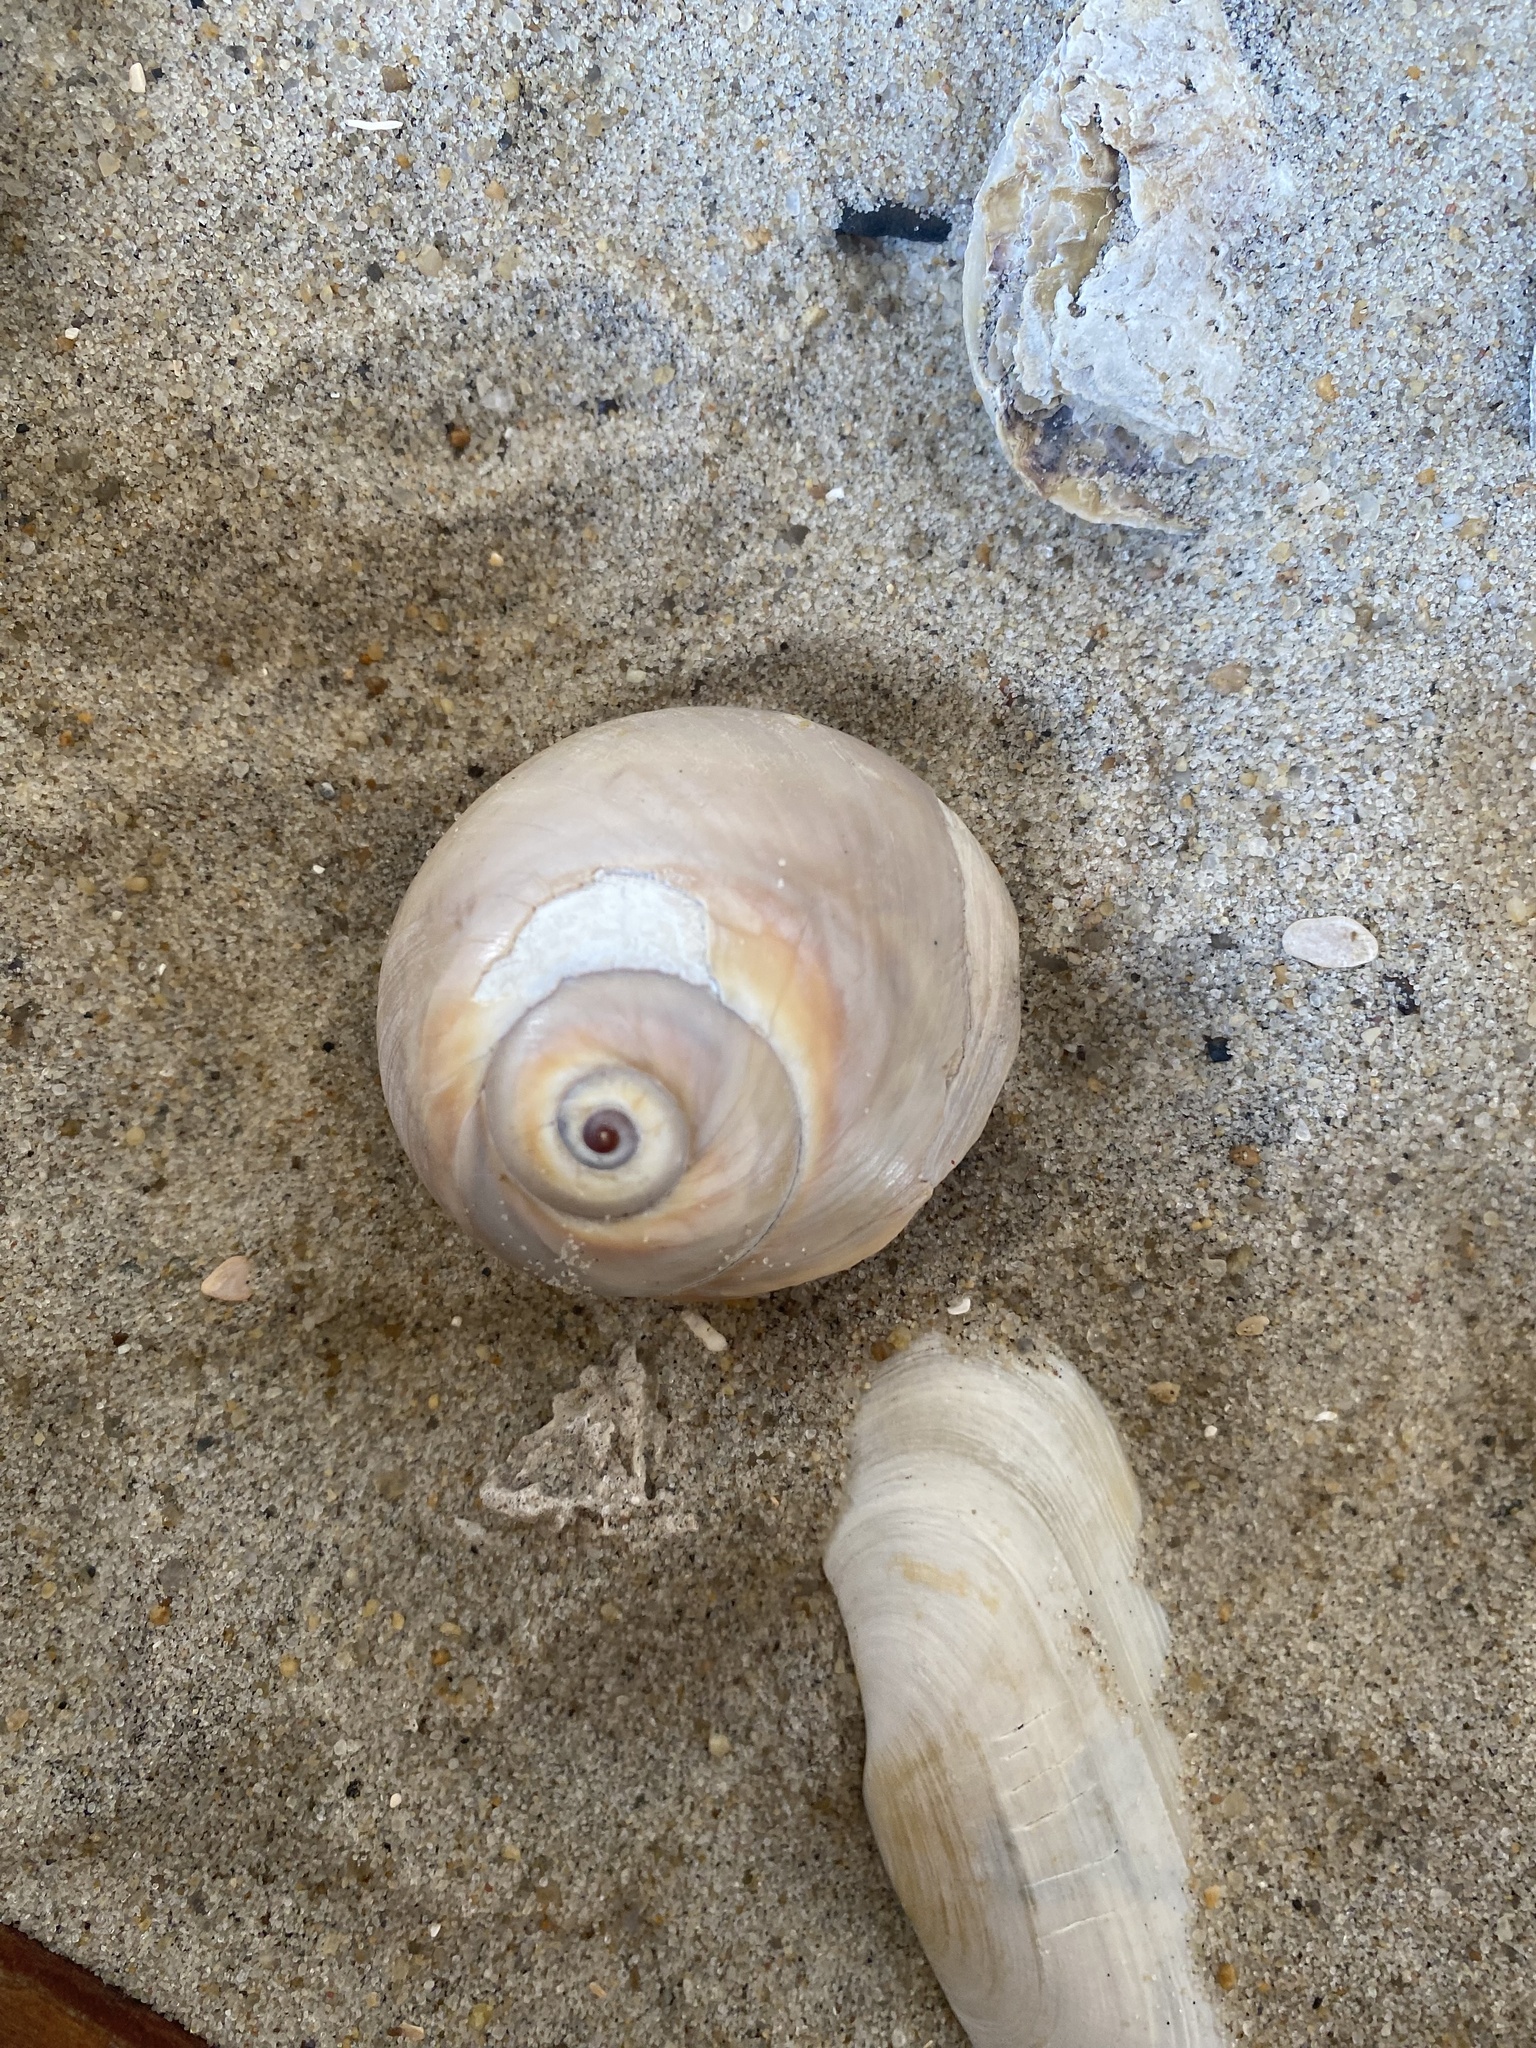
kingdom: Animalia
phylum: Mollusca
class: Gastropoda
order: Littorinimorpha
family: Naticidae
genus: Neverita
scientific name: Neverita duplicata
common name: Lobed moonsnail
